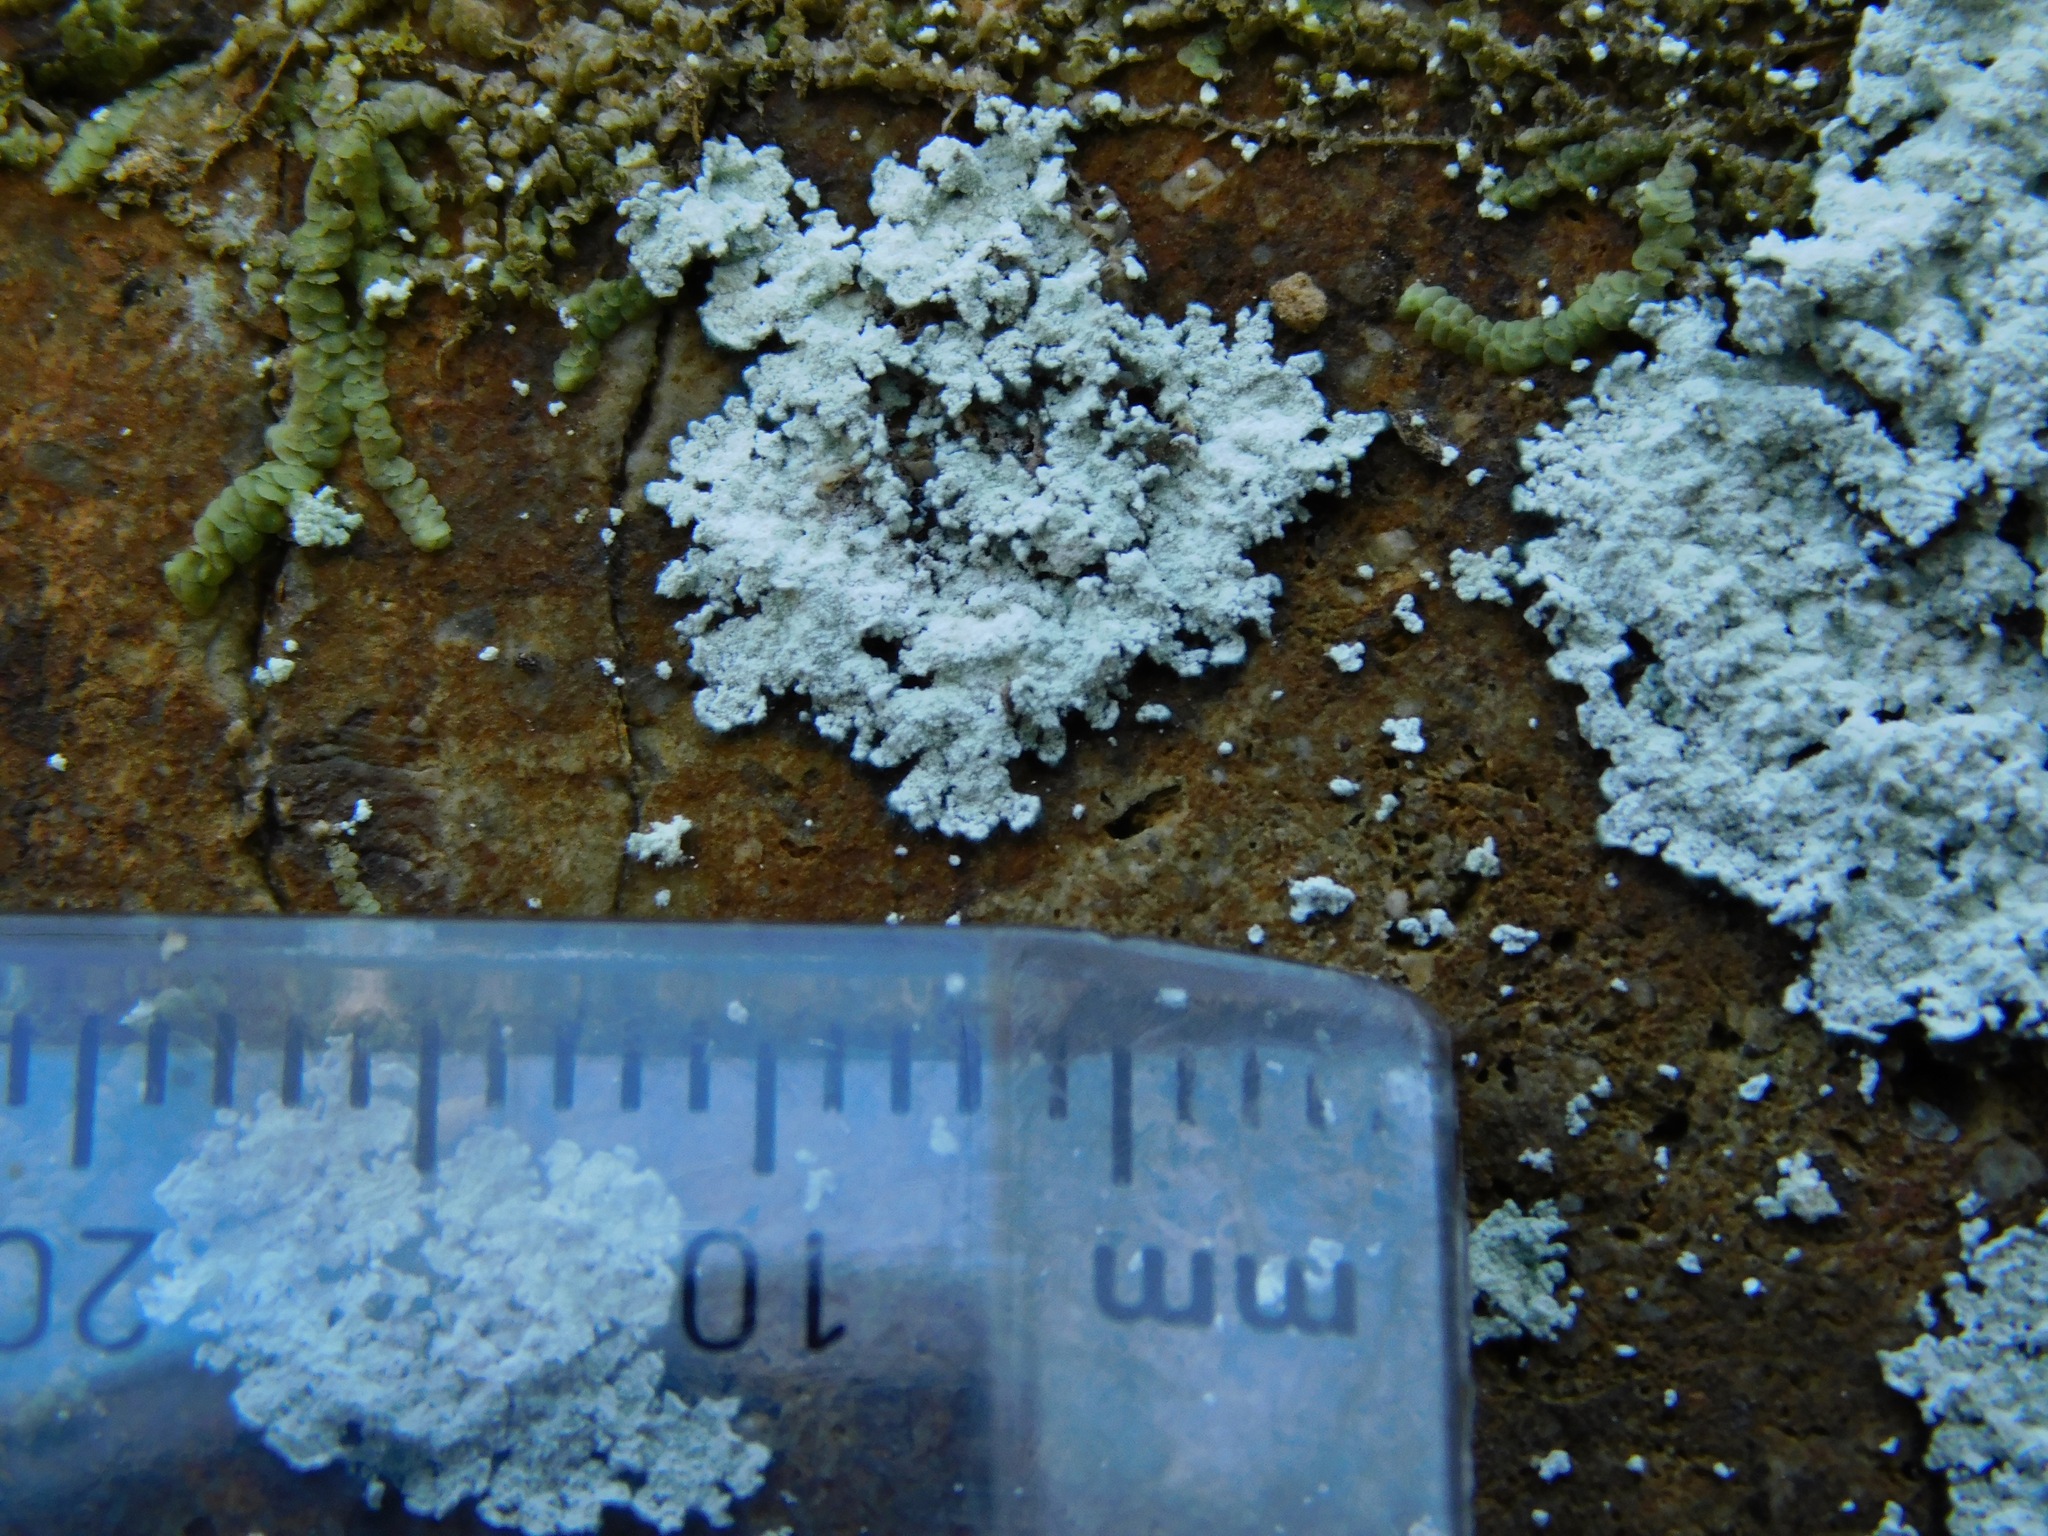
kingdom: Fungi
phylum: Ascomycota
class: Lecanoromycetes
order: Lecanorales
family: Stereocaulaceae
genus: Lepraria
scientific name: Lepraria normandinoides
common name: Elf-ear dust
